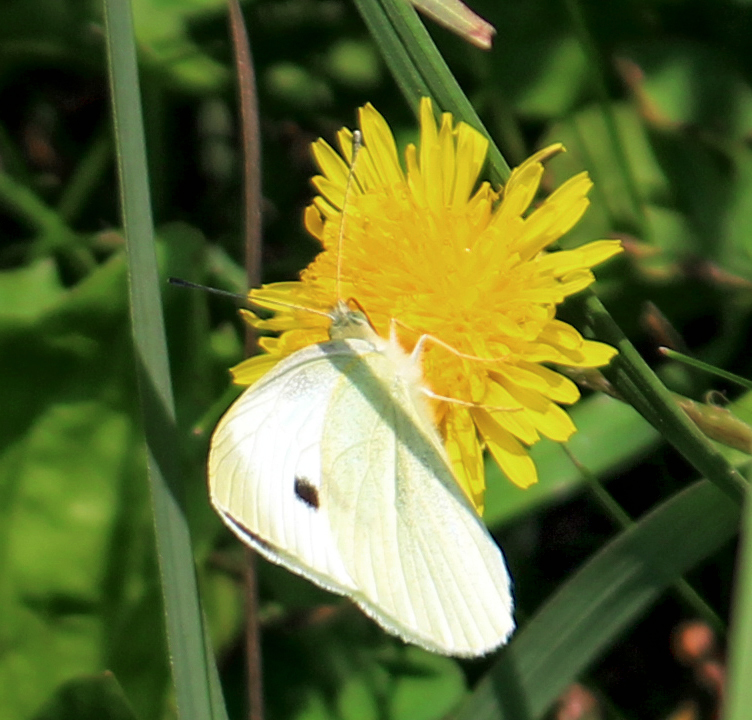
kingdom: Animalia
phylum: Arthropoda
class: Insecta
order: Lepidoptera
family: Pieridae
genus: Pieris
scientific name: Pieris rapae
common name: Small white
